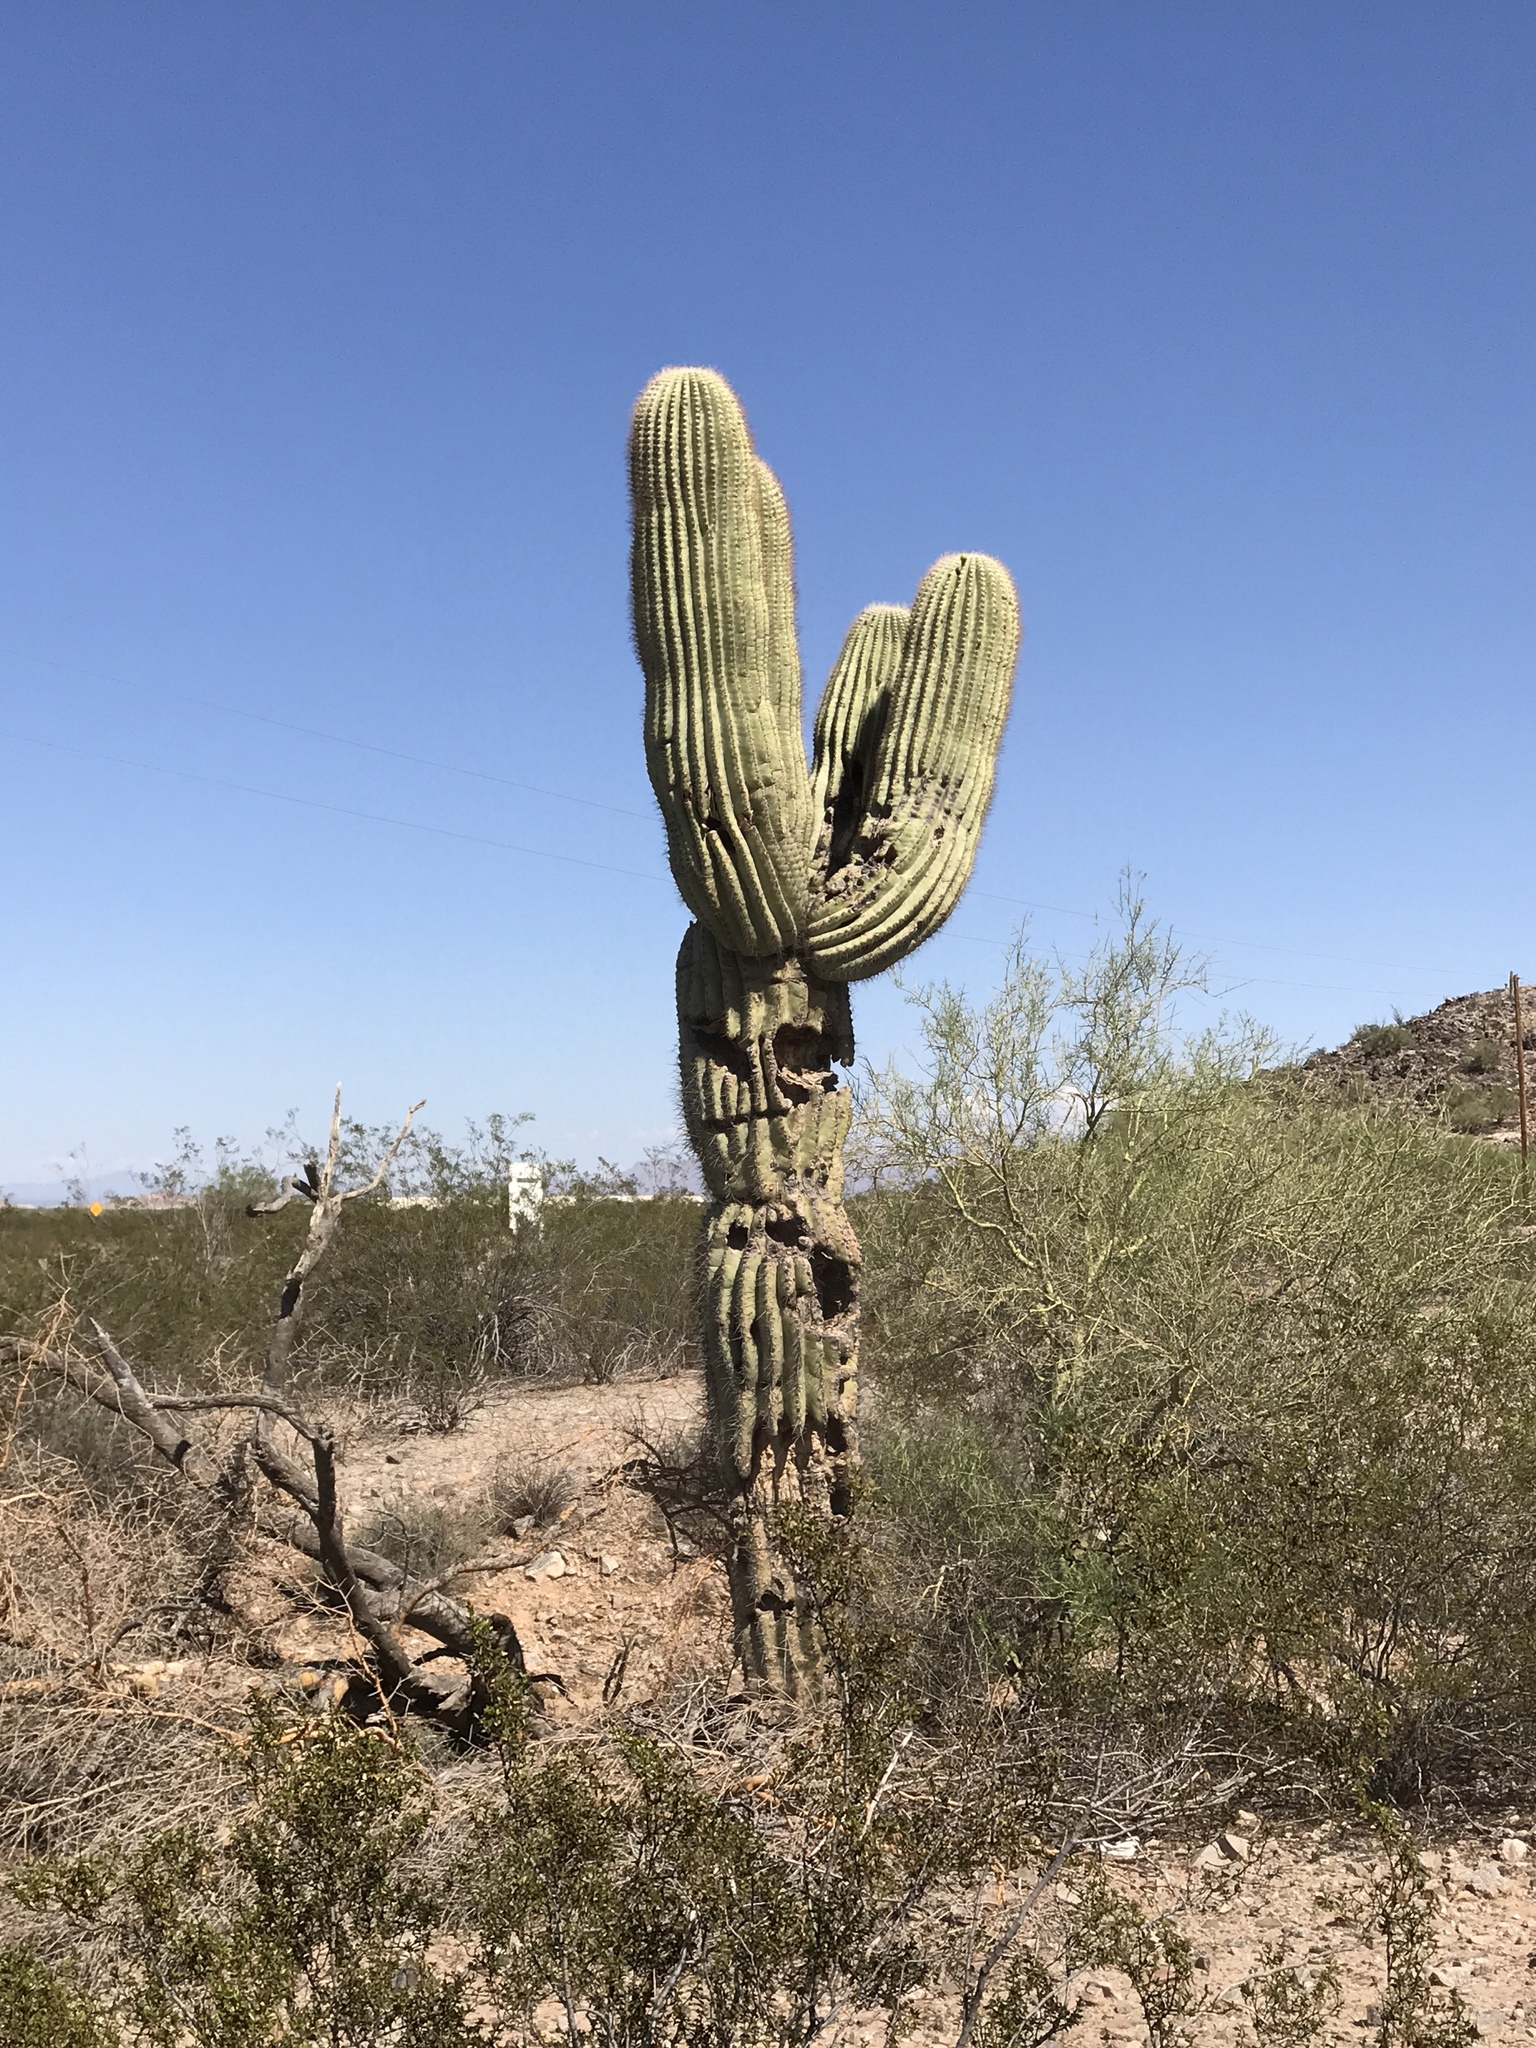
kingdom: Plantae
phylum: Tracheophyta
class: Magnoliopsida
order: Caryophyllales
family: Cactaceae
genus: Carnegiea
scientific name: Carnegiea gigantea
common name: Saguaro
